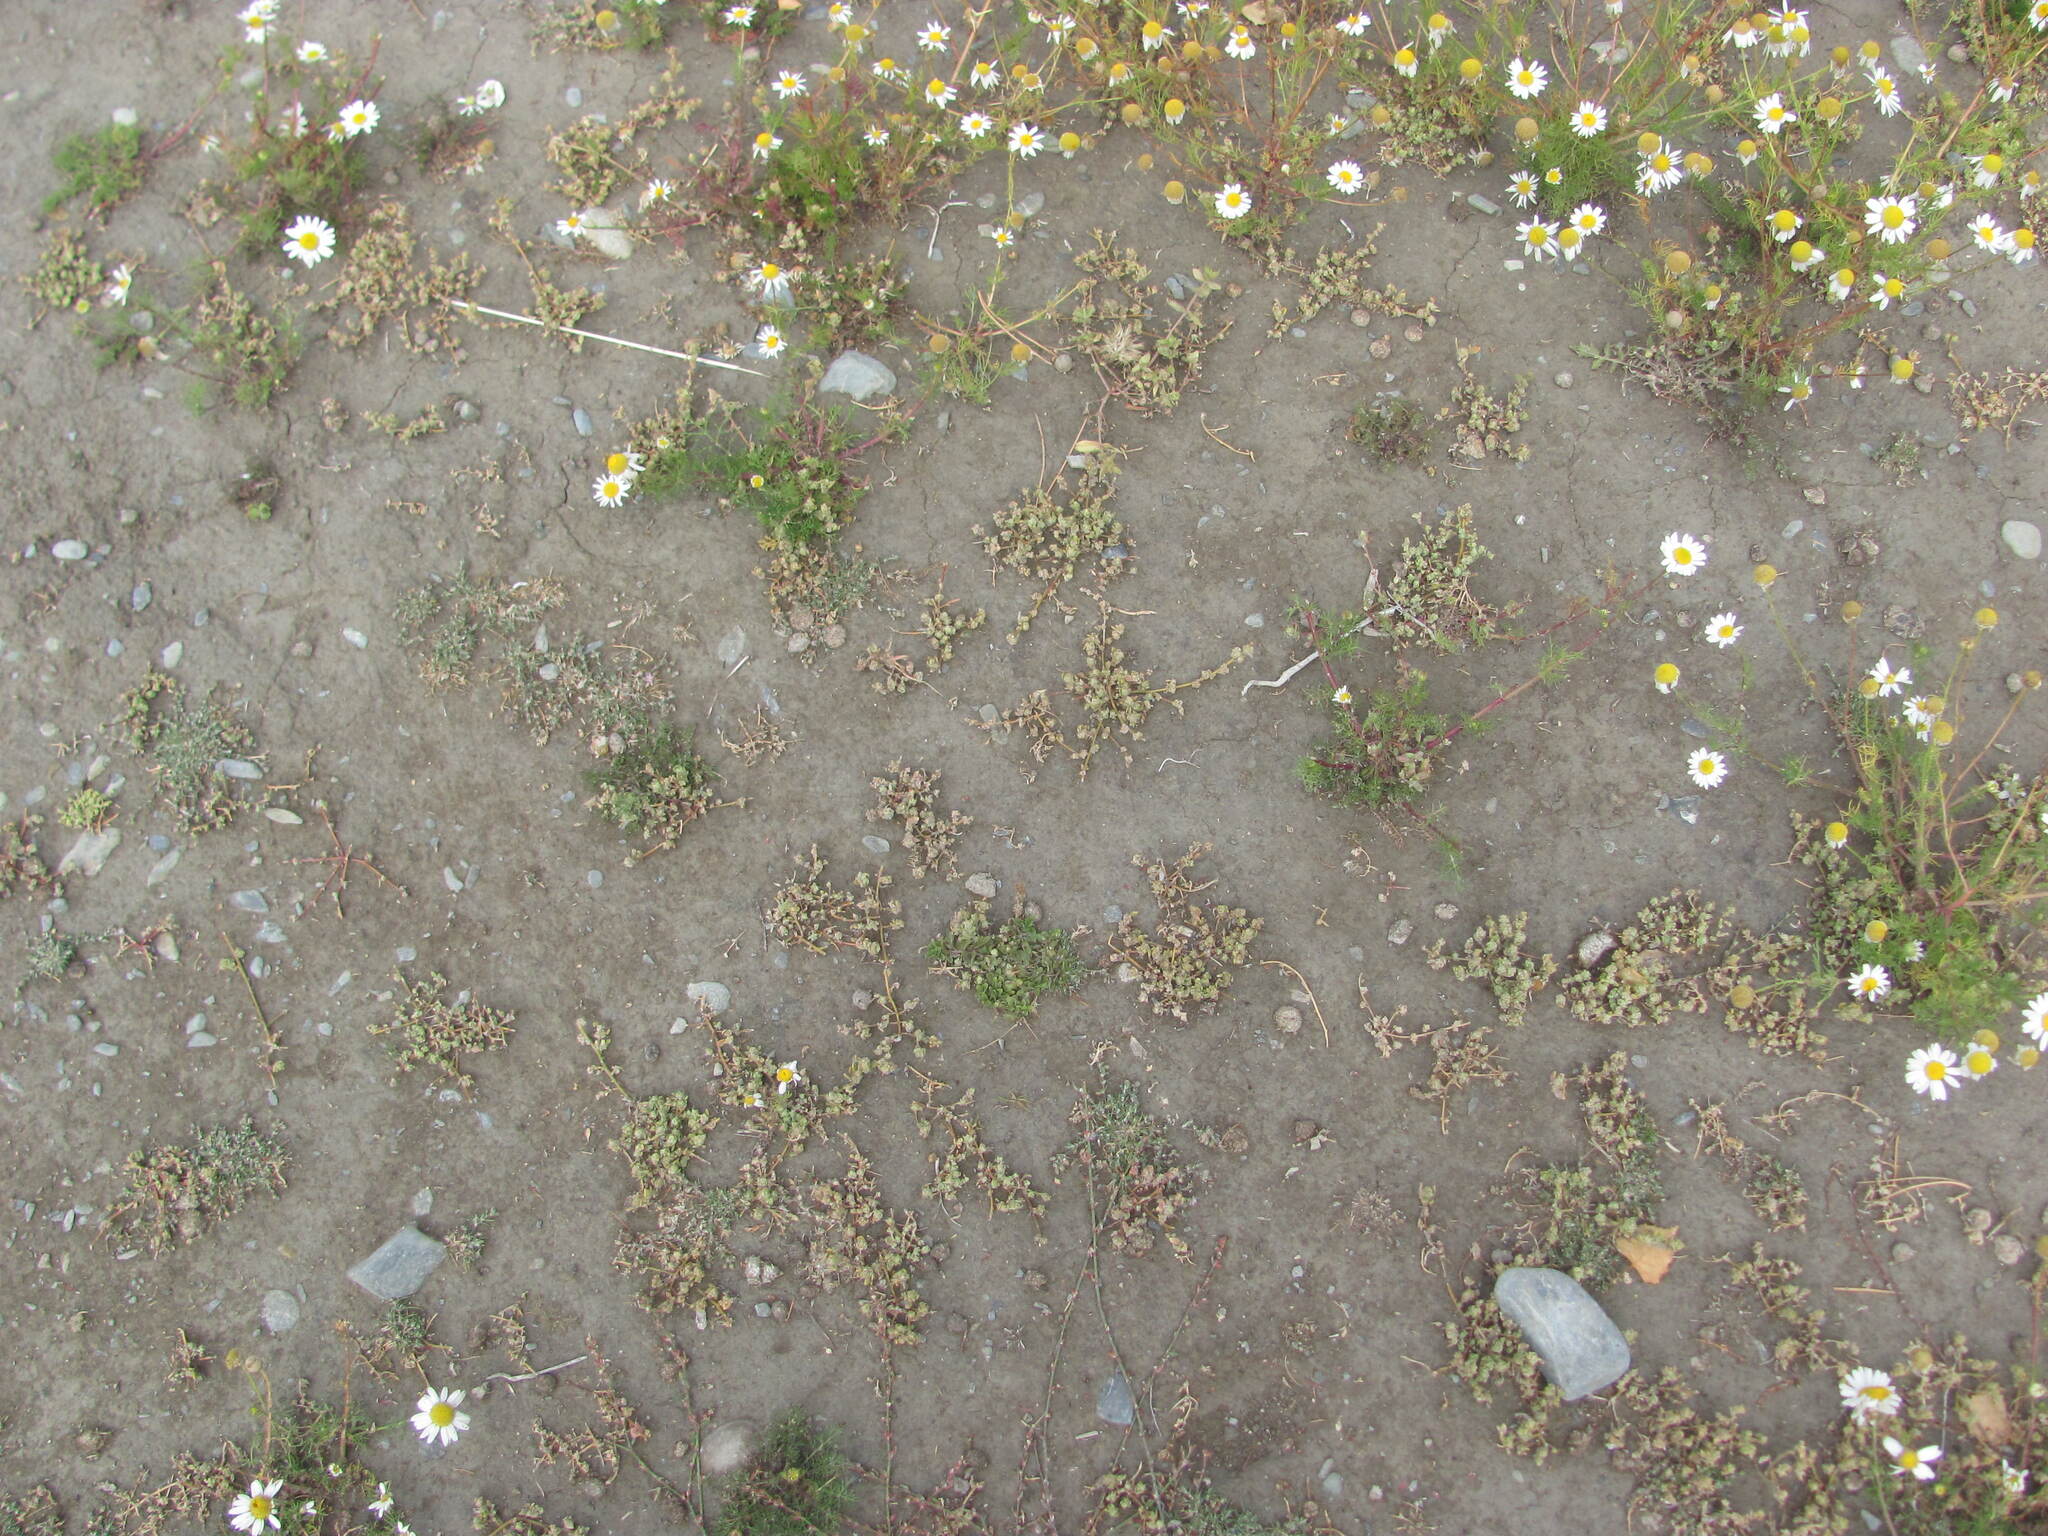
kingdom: Plantae
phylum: Tracheophyta
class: Magnoliopsida
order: Caryophyllales
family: Amaranthaceae
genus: Chenopodium
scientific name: Chenopodium detestans
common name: Fish-guts
